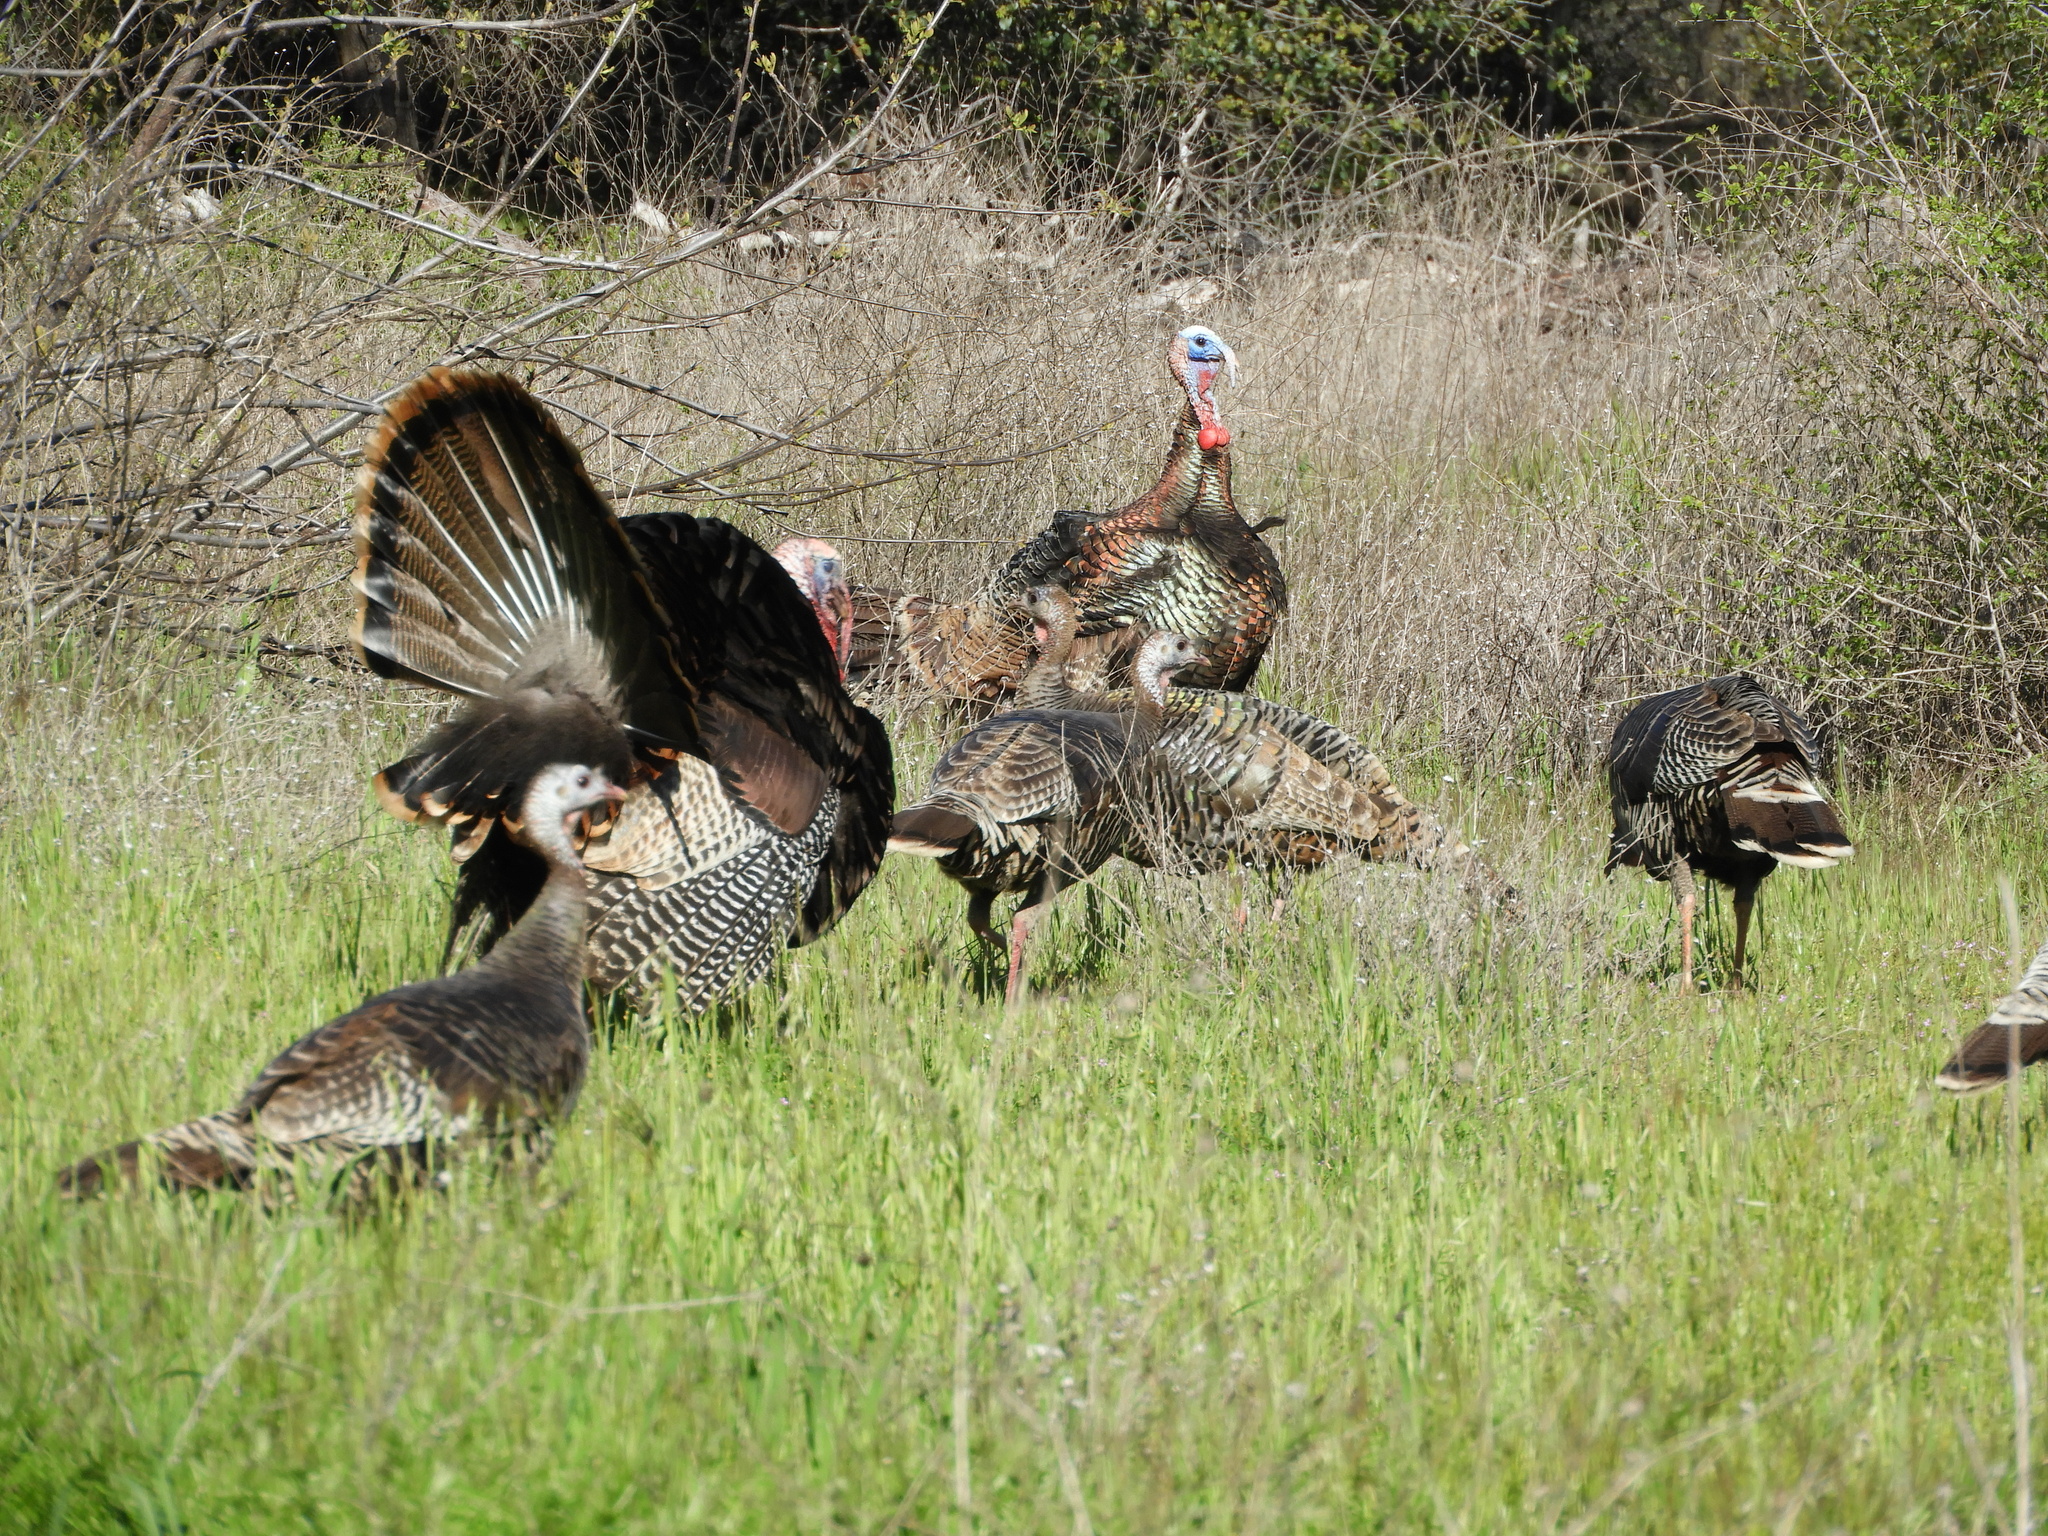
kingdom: Animalia
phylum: Chordata
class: Aves
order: Galliformes
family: Phasianidae
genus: Meleagris
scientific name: Meleagris gallopavo
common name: Wild turkey
